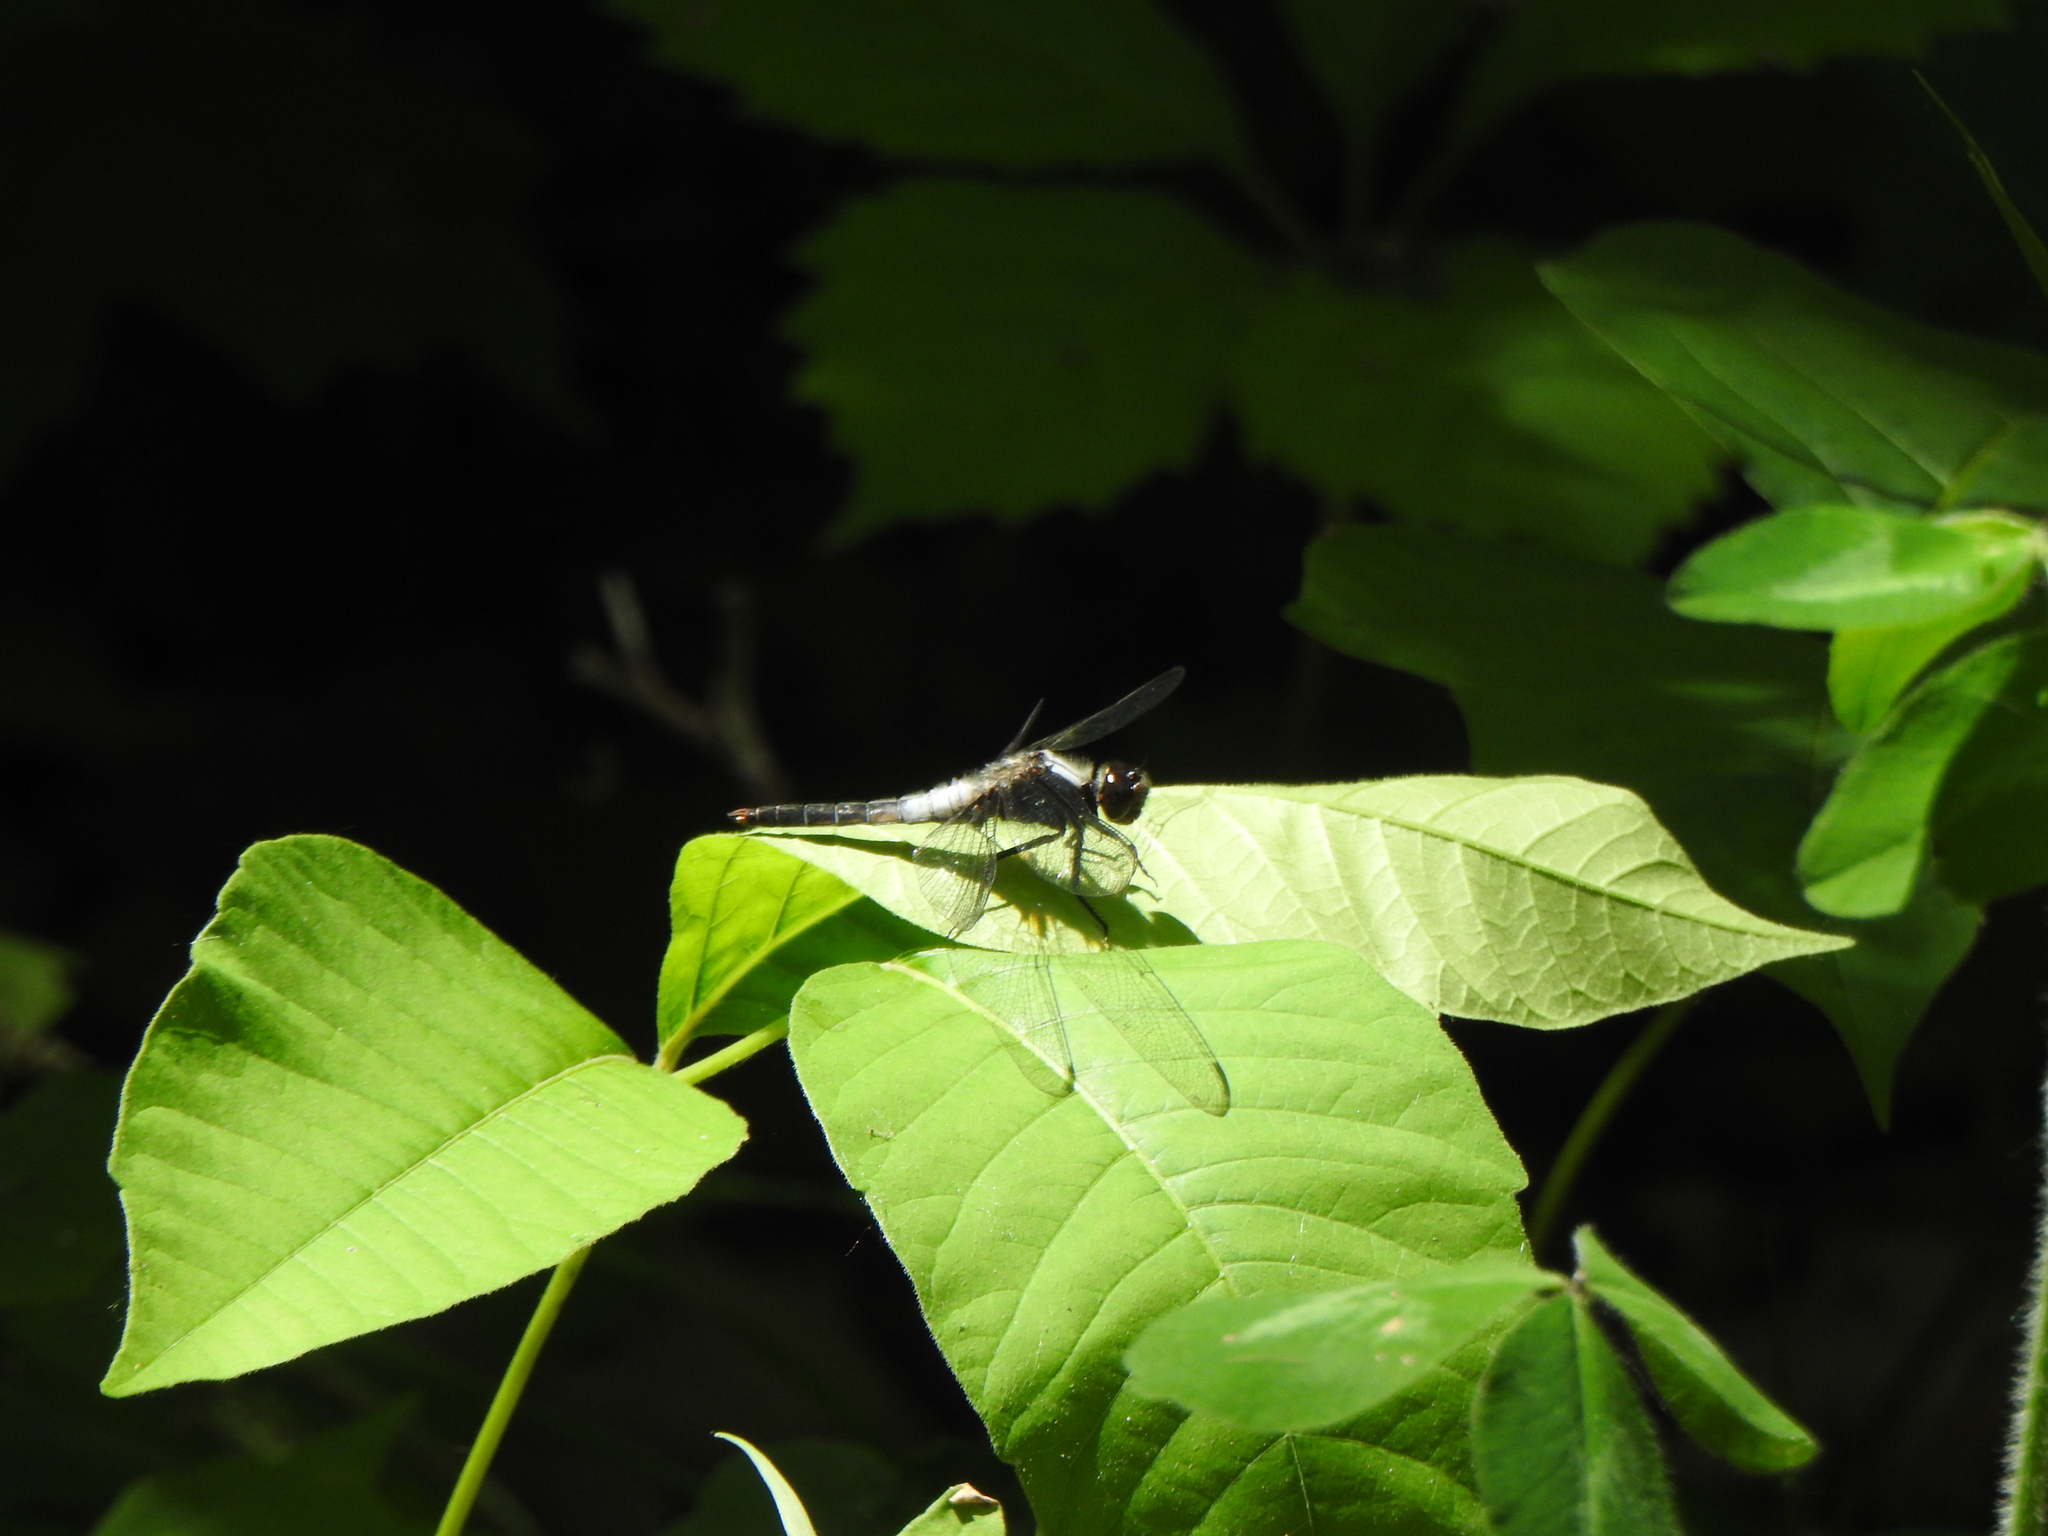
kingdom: Animalia
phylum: Arthropoda
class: Insecta
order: Odonata
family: Libellulidae
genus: Ladona
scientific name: Ladona julia
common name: Chalk-fronted corporal
